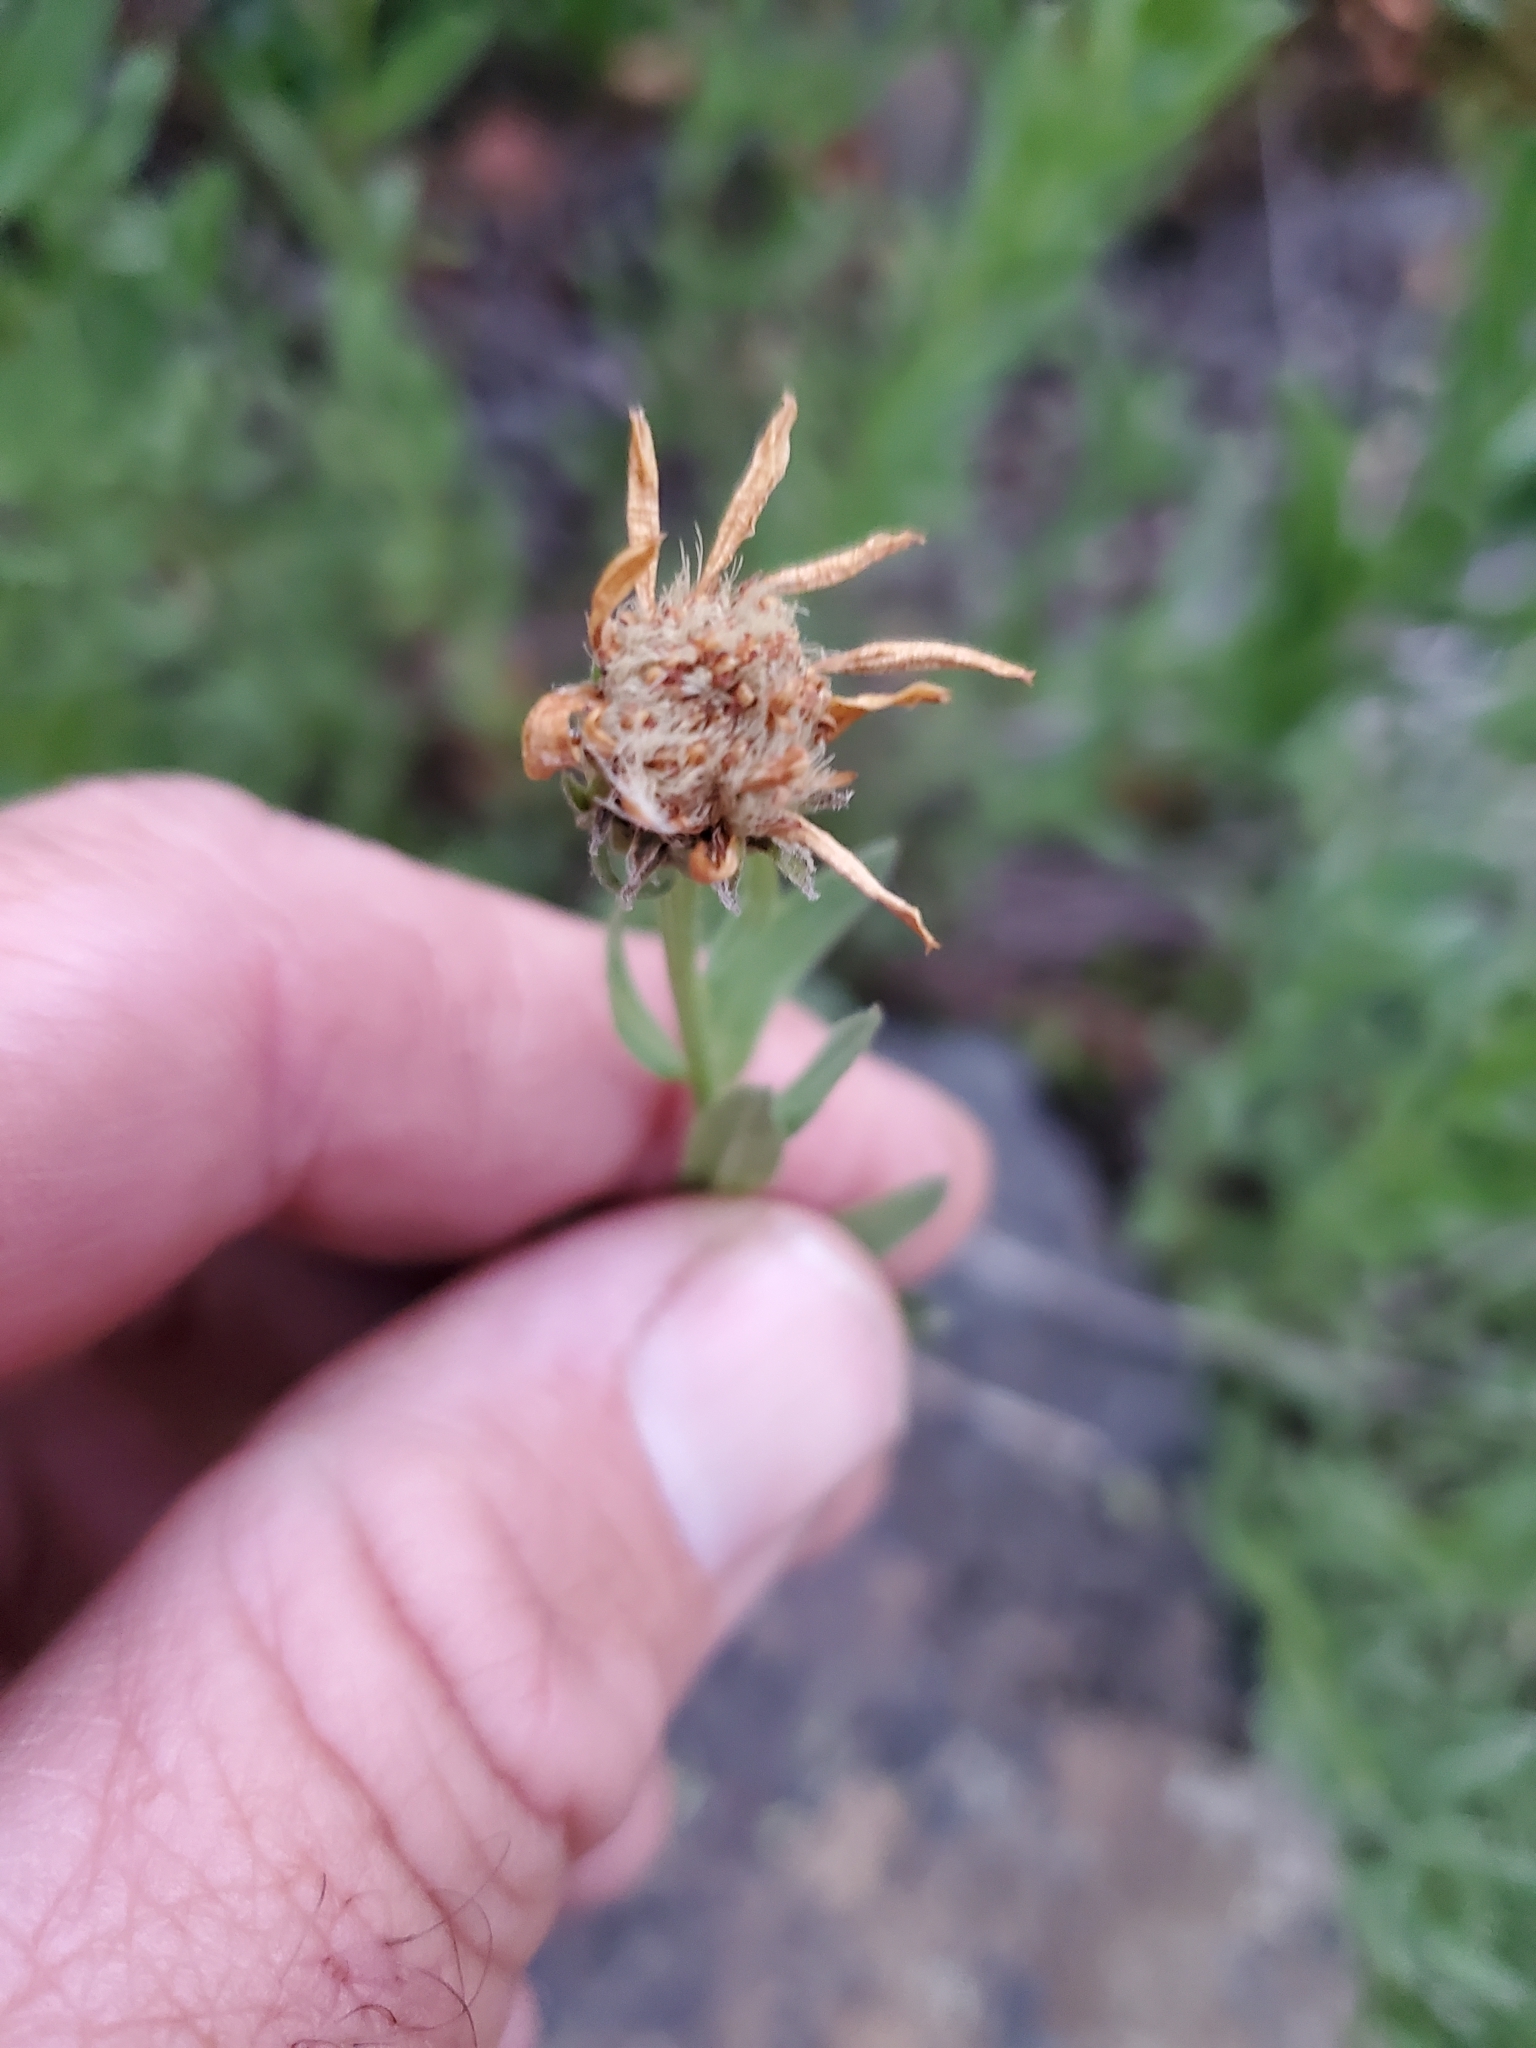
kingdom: Plantae
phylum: Tracheophyta
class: Magnoliopsida
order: Asterales
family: Asteraceae
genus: Eucephalus
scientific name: Eucephalus paucicapitatus
